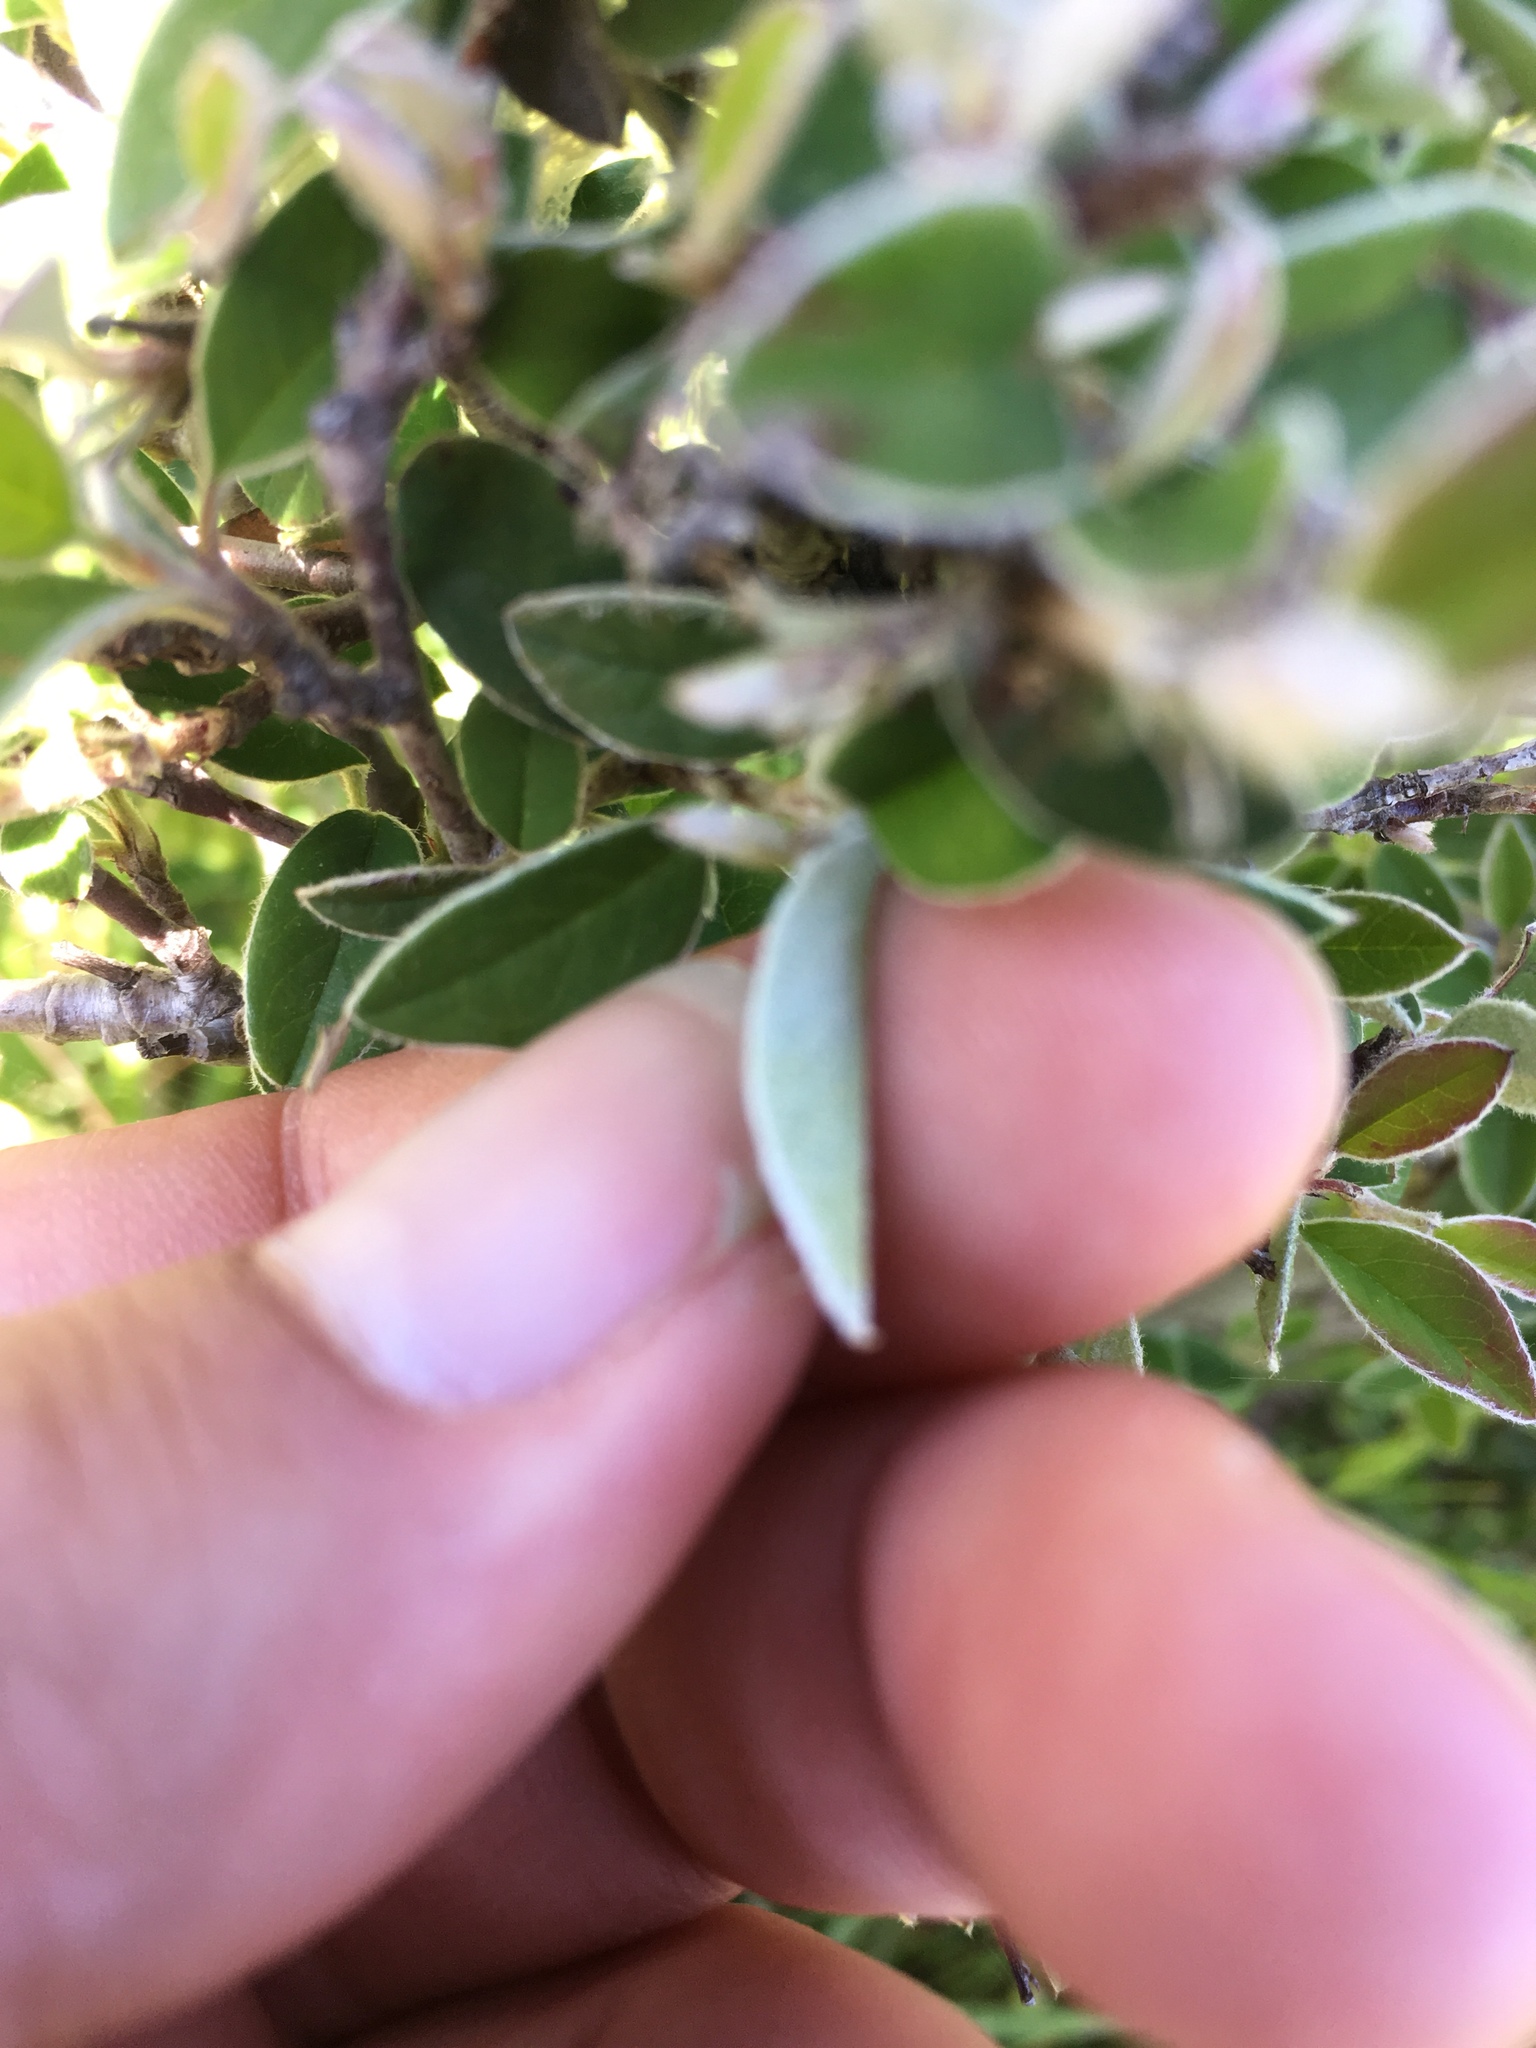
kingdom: Plantae
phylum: Tracheophyta
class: Magnoliopsida
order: Rosales
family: Rosaceae
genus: Cotoneaster
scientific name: Cotoneaster pannosus
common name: Silverleaf cotoneaster
